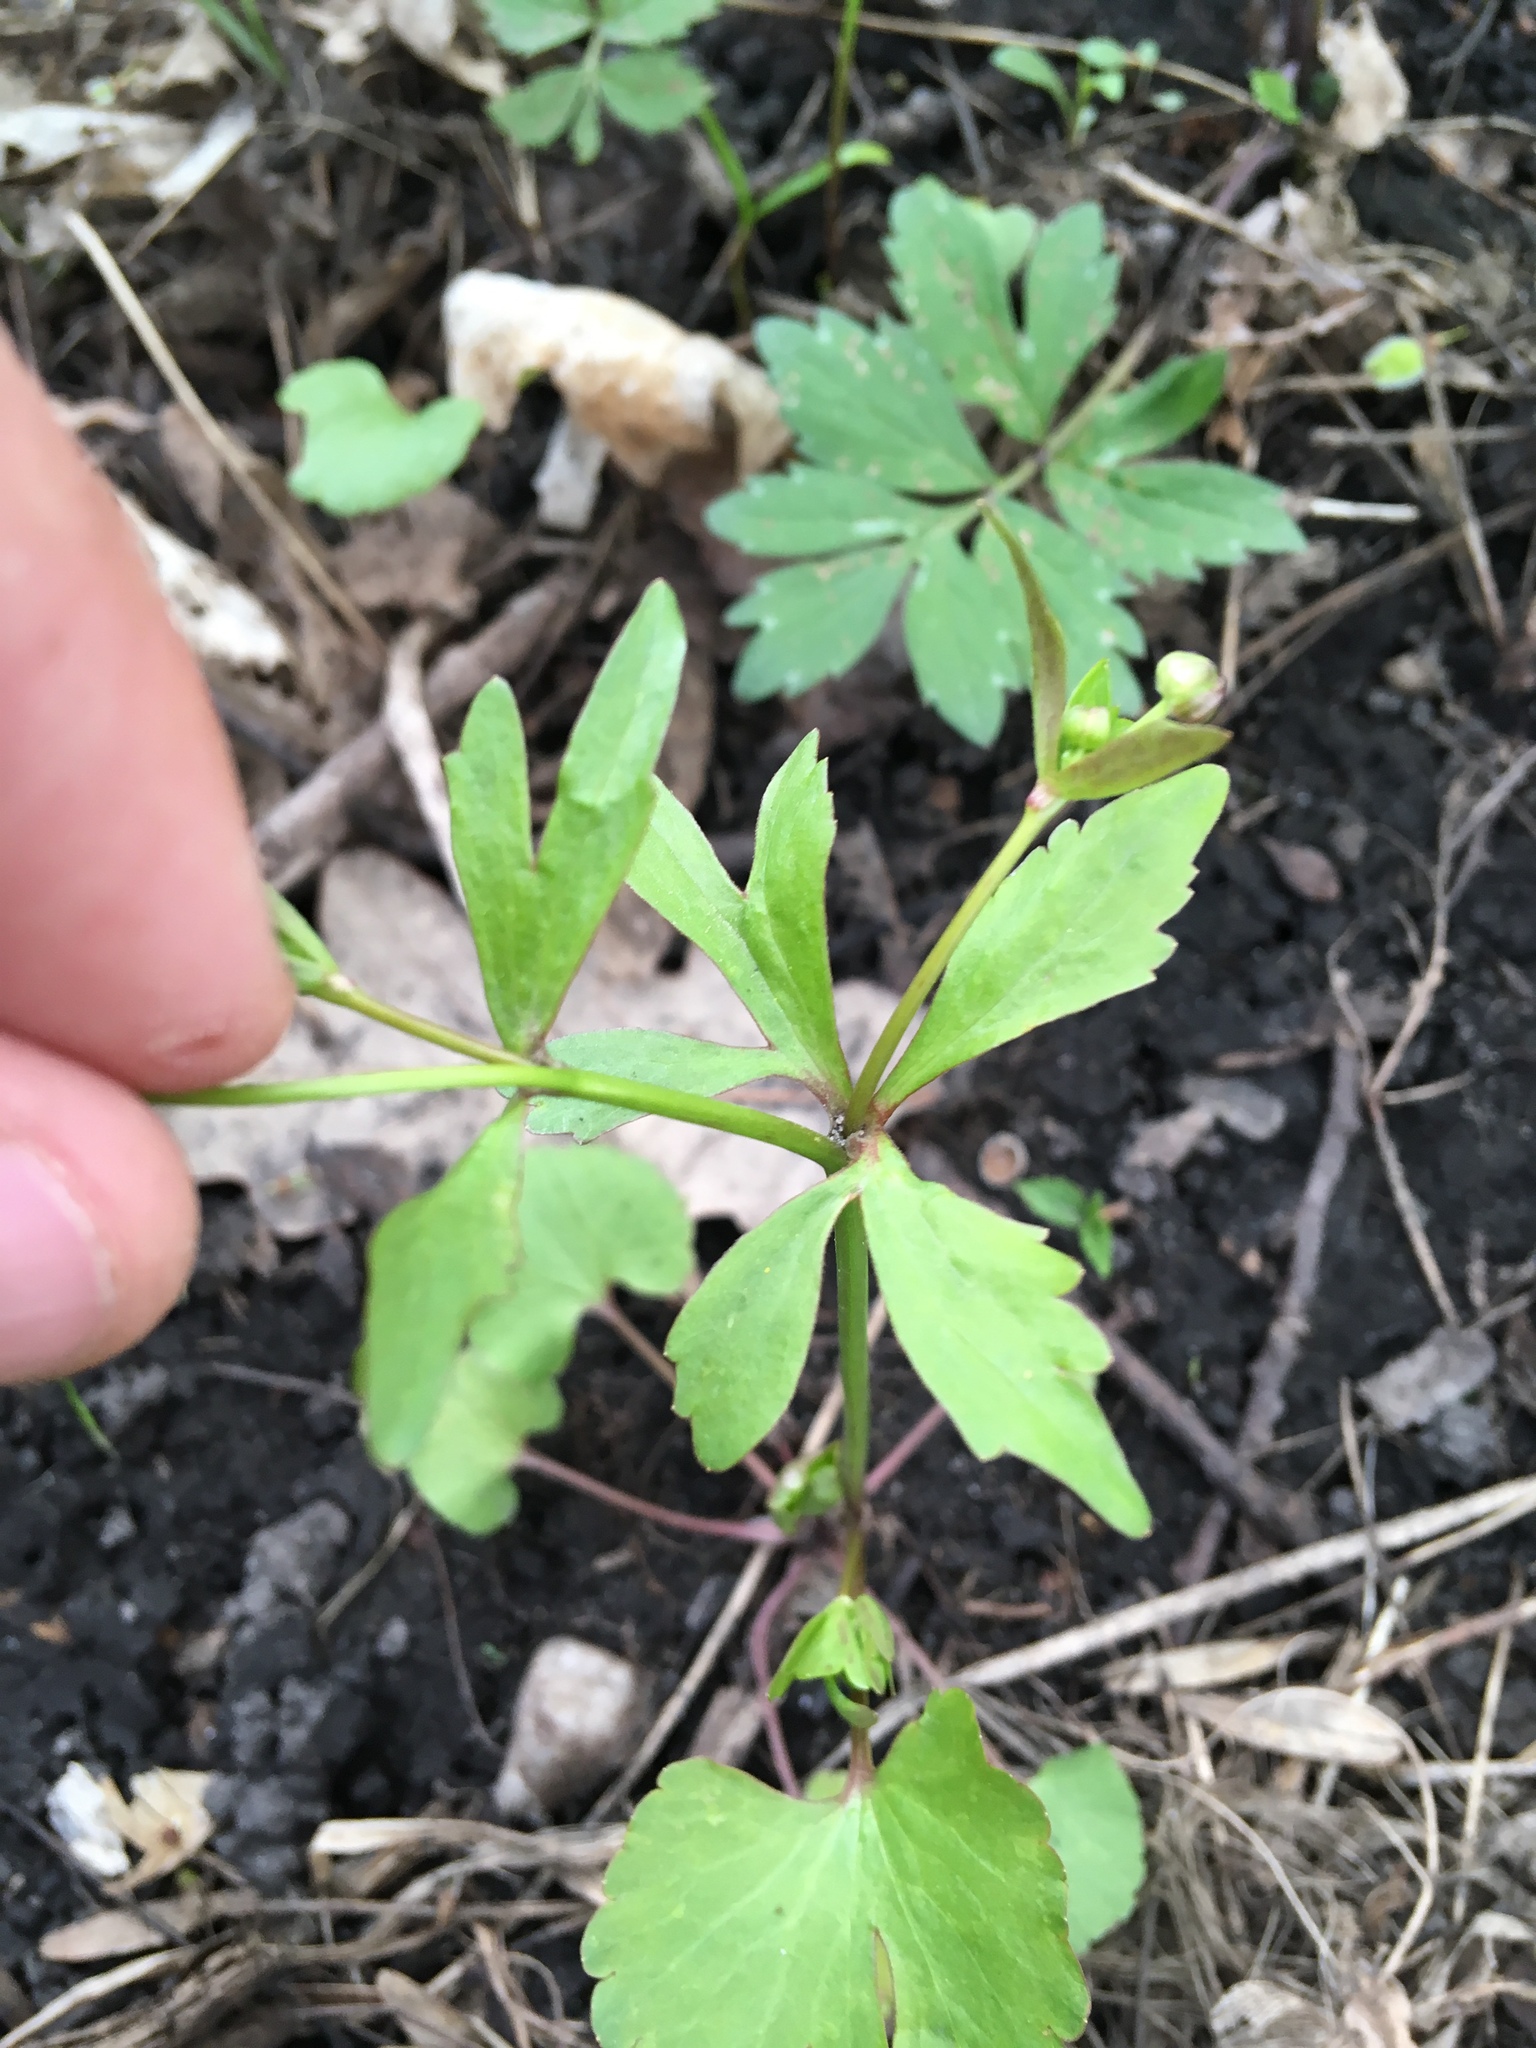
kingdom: Plantae
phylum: Tracheophyta
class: Magnoliopsida
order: Ranunculales
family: Ranunculaceae
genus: Ranunculus
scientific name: Ranunculus abortivus
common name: Early wood buttercup
